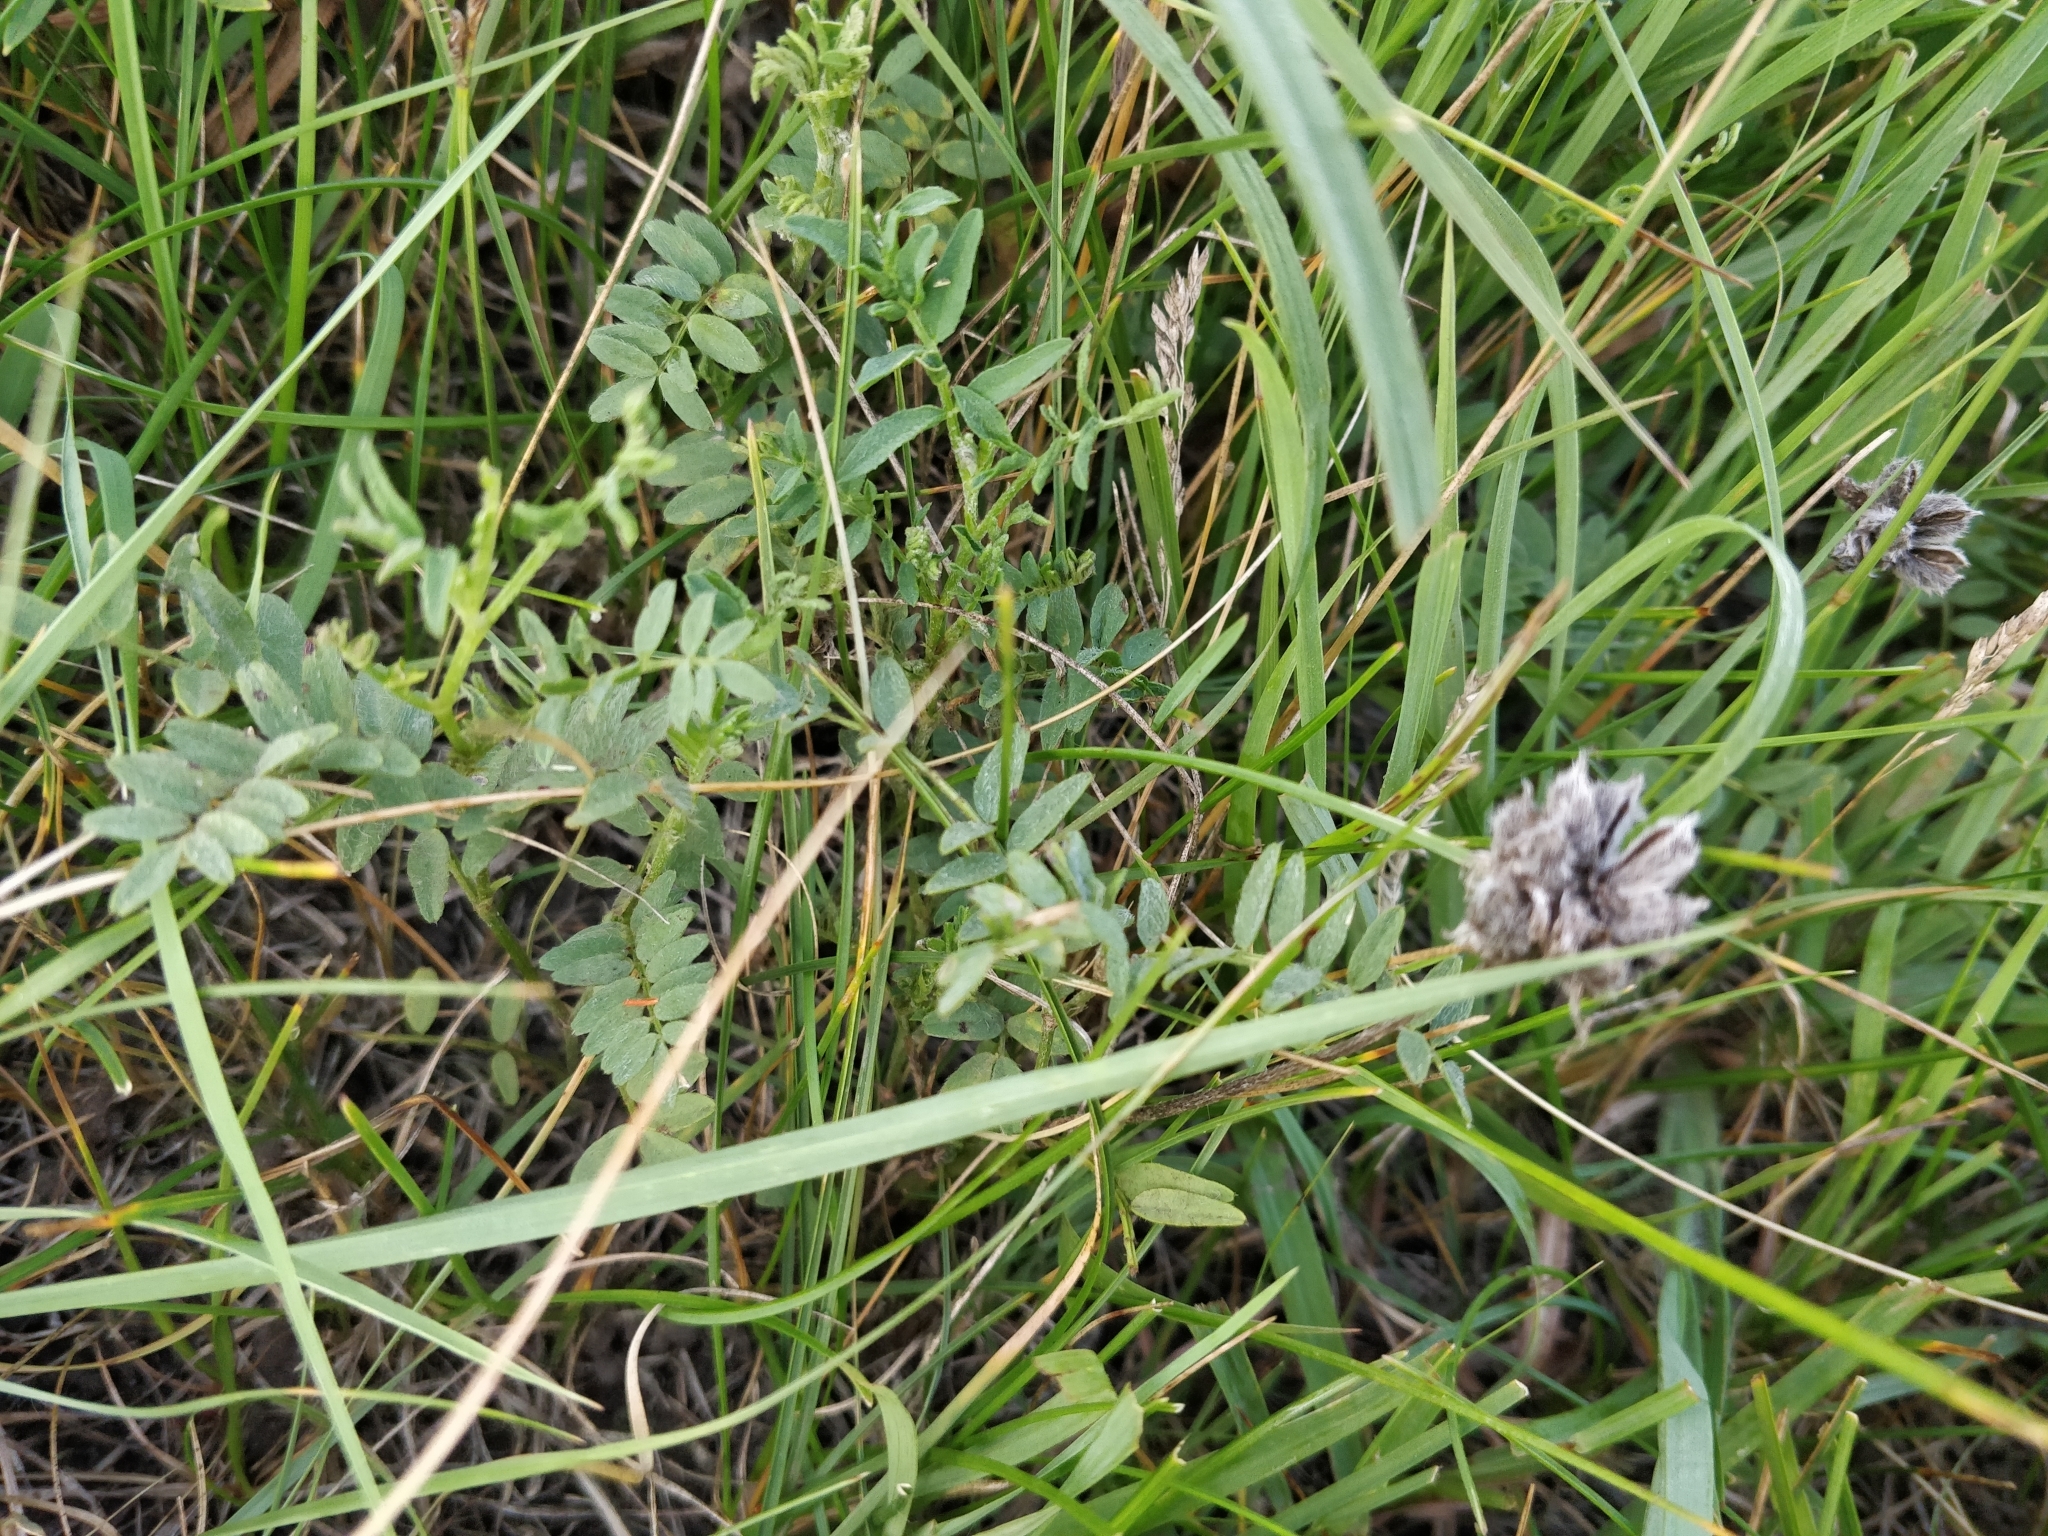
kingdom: Plantae
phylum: Tracheophyta
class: Magnoliopsida
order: Fabales
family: Fabaceae
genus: Astragalus
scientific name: Astragalus agrestis
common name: Field milk-vetch
